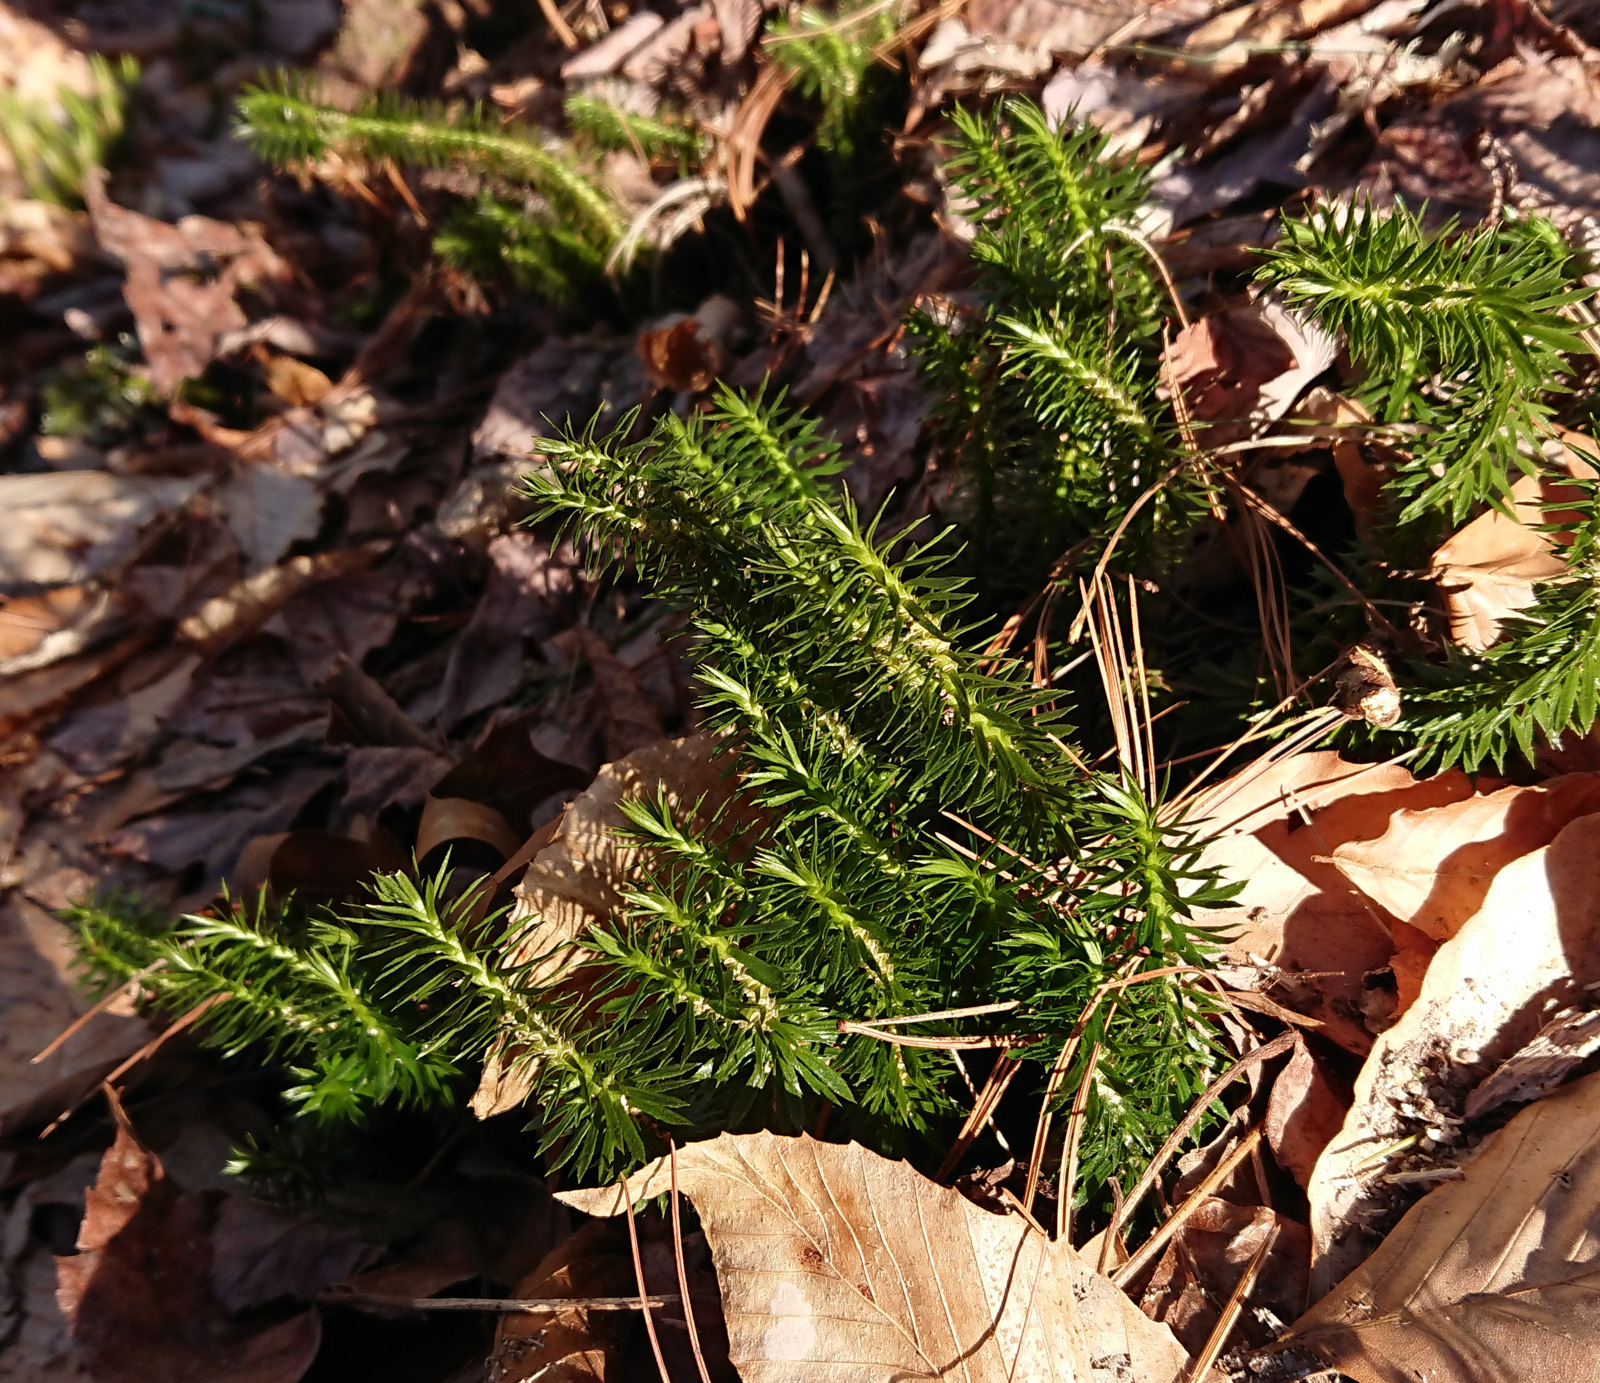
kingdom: Plantae
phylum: Tracheophyta
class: Lycopodiopsida
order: Lycopodiales
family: Lycopodiaceae
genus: Huperzia
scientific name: Huperzia lucidula
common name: Shining clubmoss
